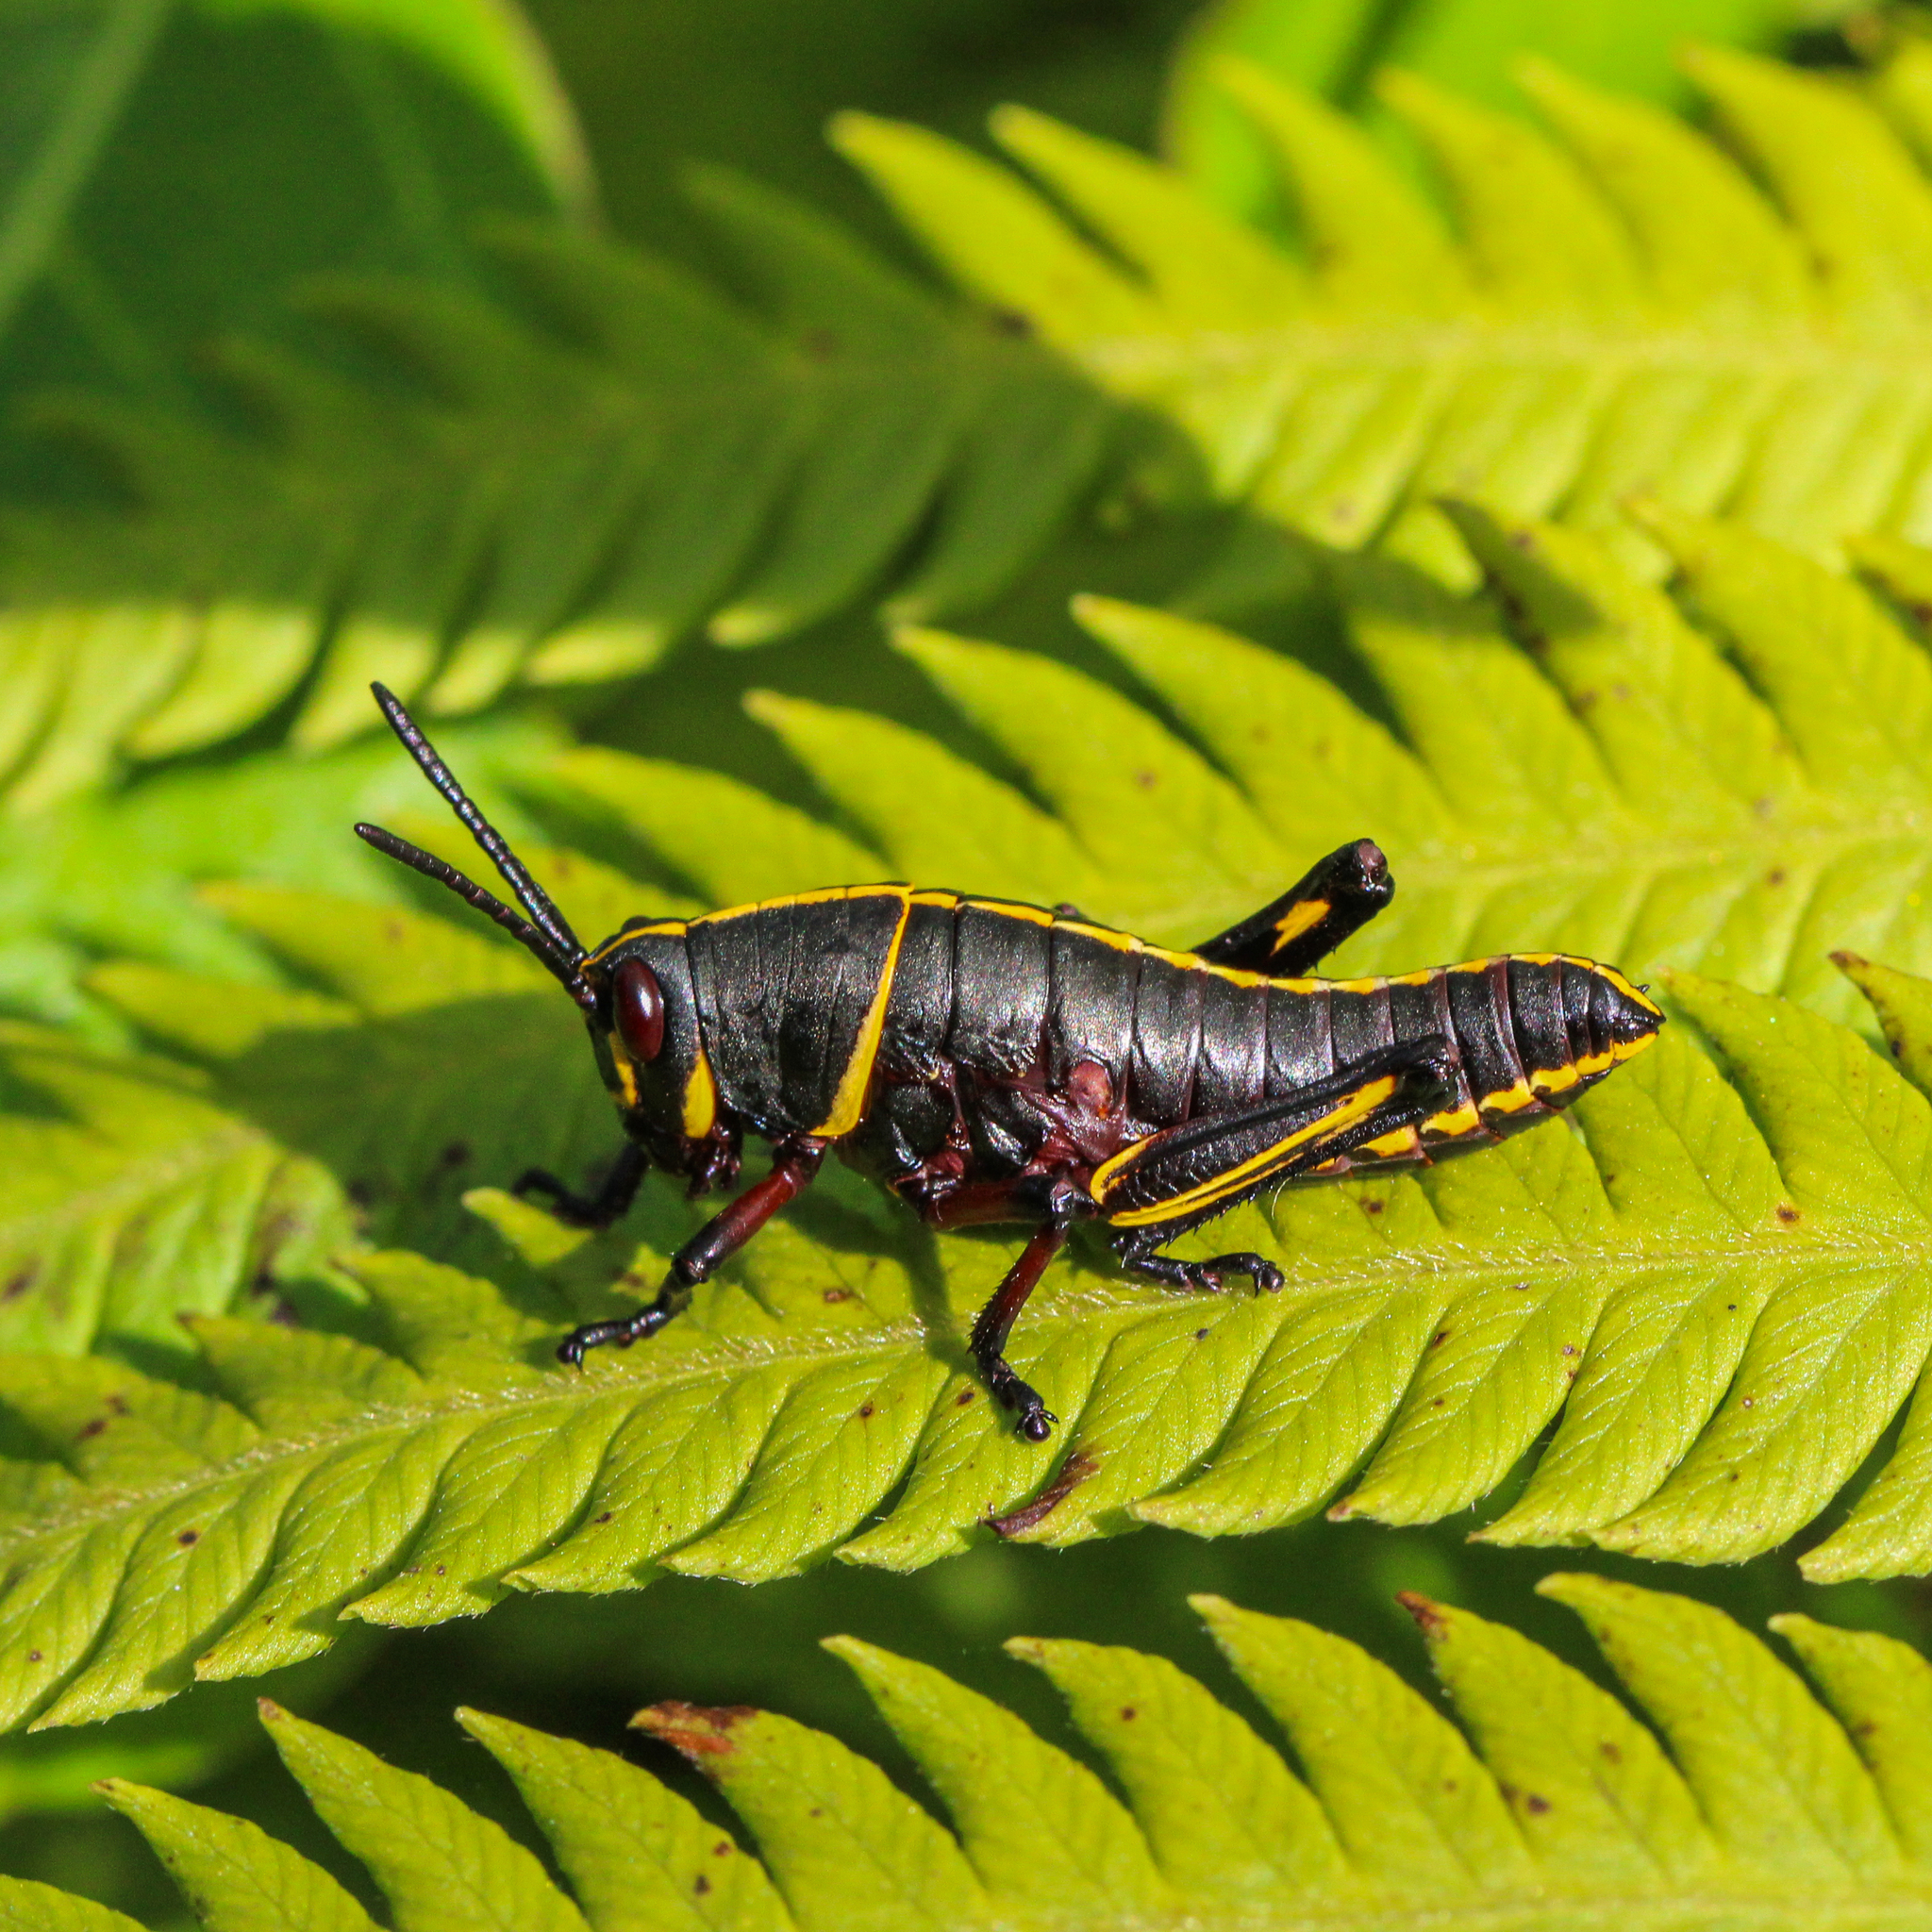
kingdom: Animalia
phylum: Arthropoda
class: Insecta
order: Orthoptera
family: Romaleidae
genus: Romalea
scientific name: Romalea microptera
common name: Eastern lubber grasshopper
